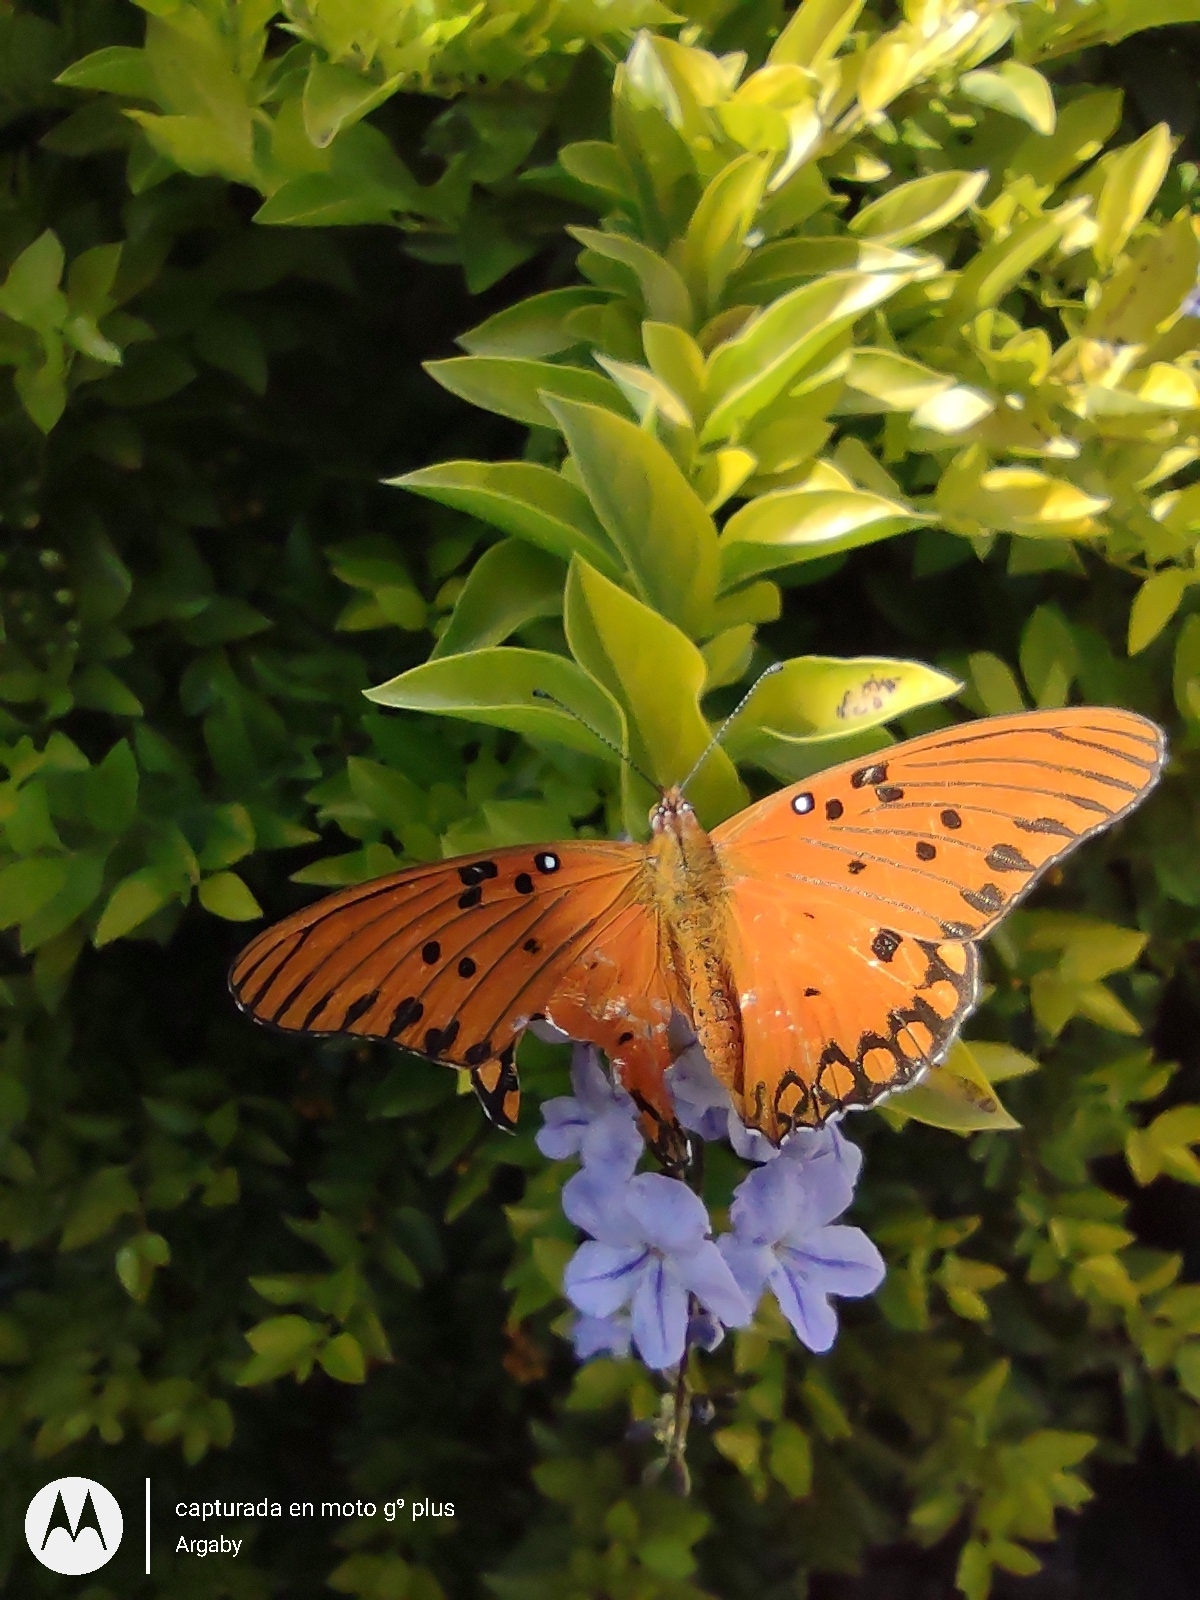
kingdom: Animalia
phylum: Arthropoda
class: Insecta
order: Lepidoptera
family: Nymphalidae
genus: Dione
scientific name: Dione vanillae
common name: Gulf fritillary
